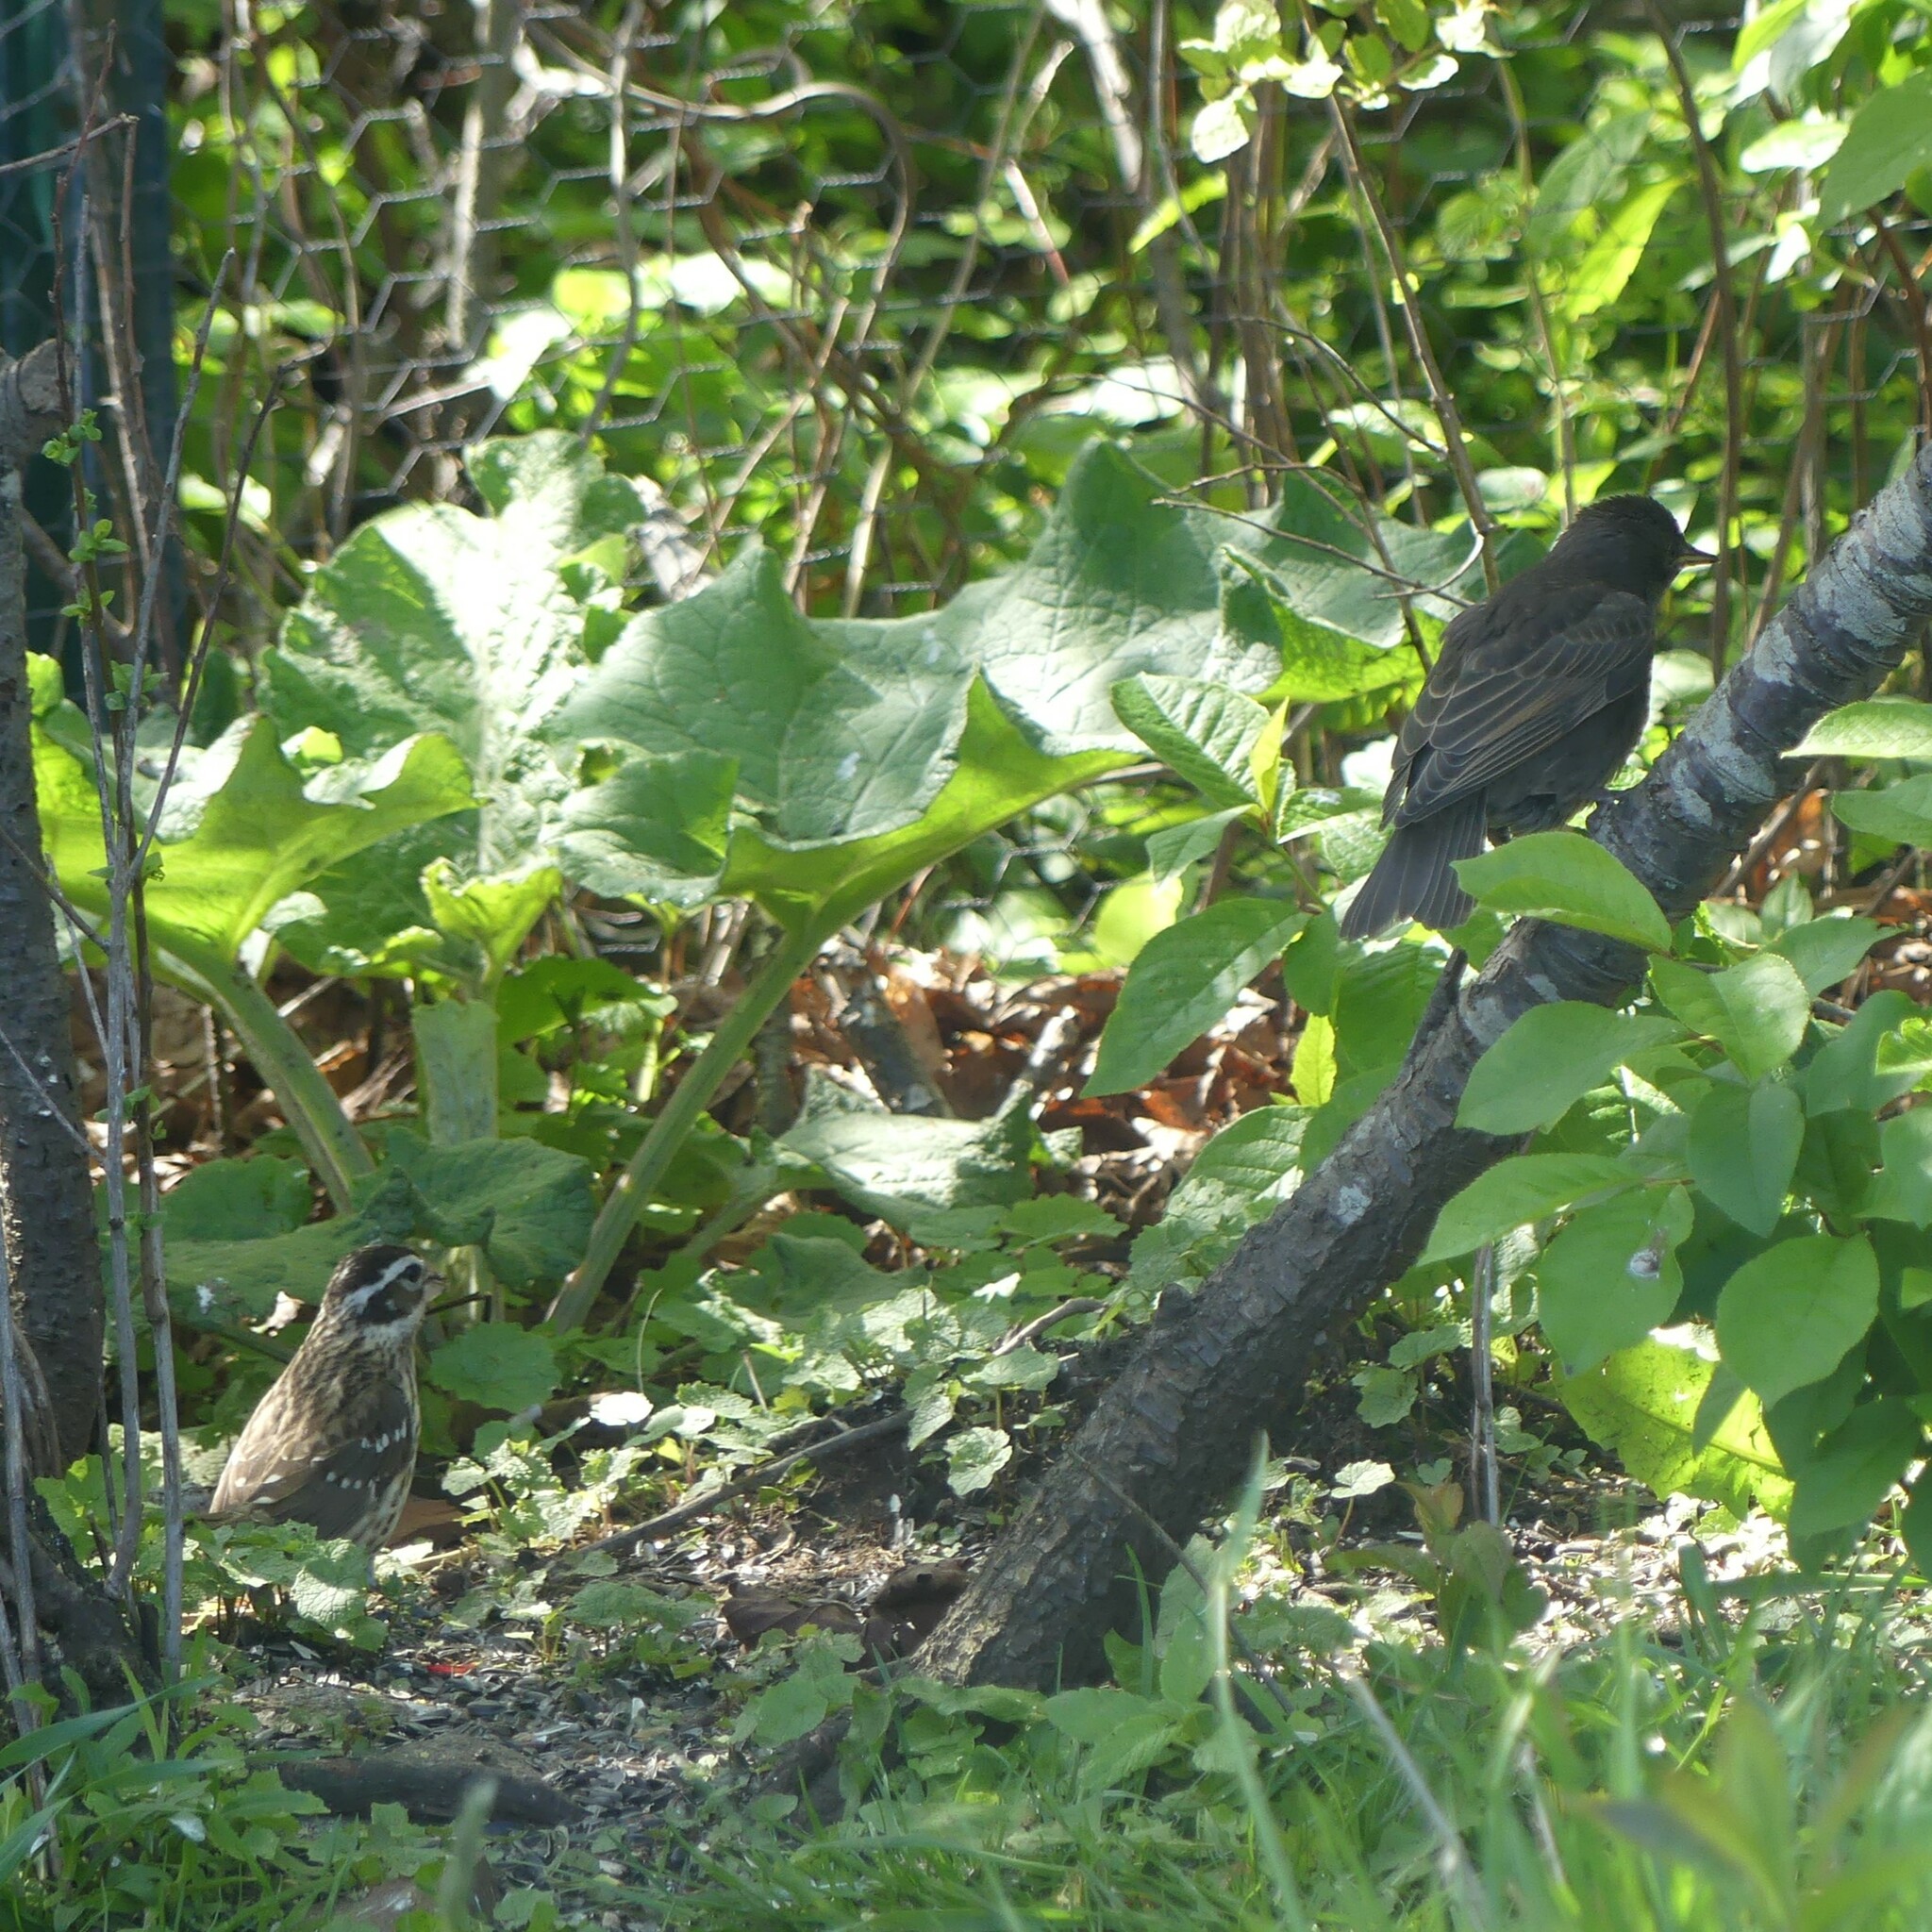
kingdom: Animalia
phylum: Chordata
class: Aves
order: Passeriformes
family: Cardinalidae
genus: Pheucticus
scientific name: Pheucticus ludovicianus
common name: Rose-breasted grosbeak
